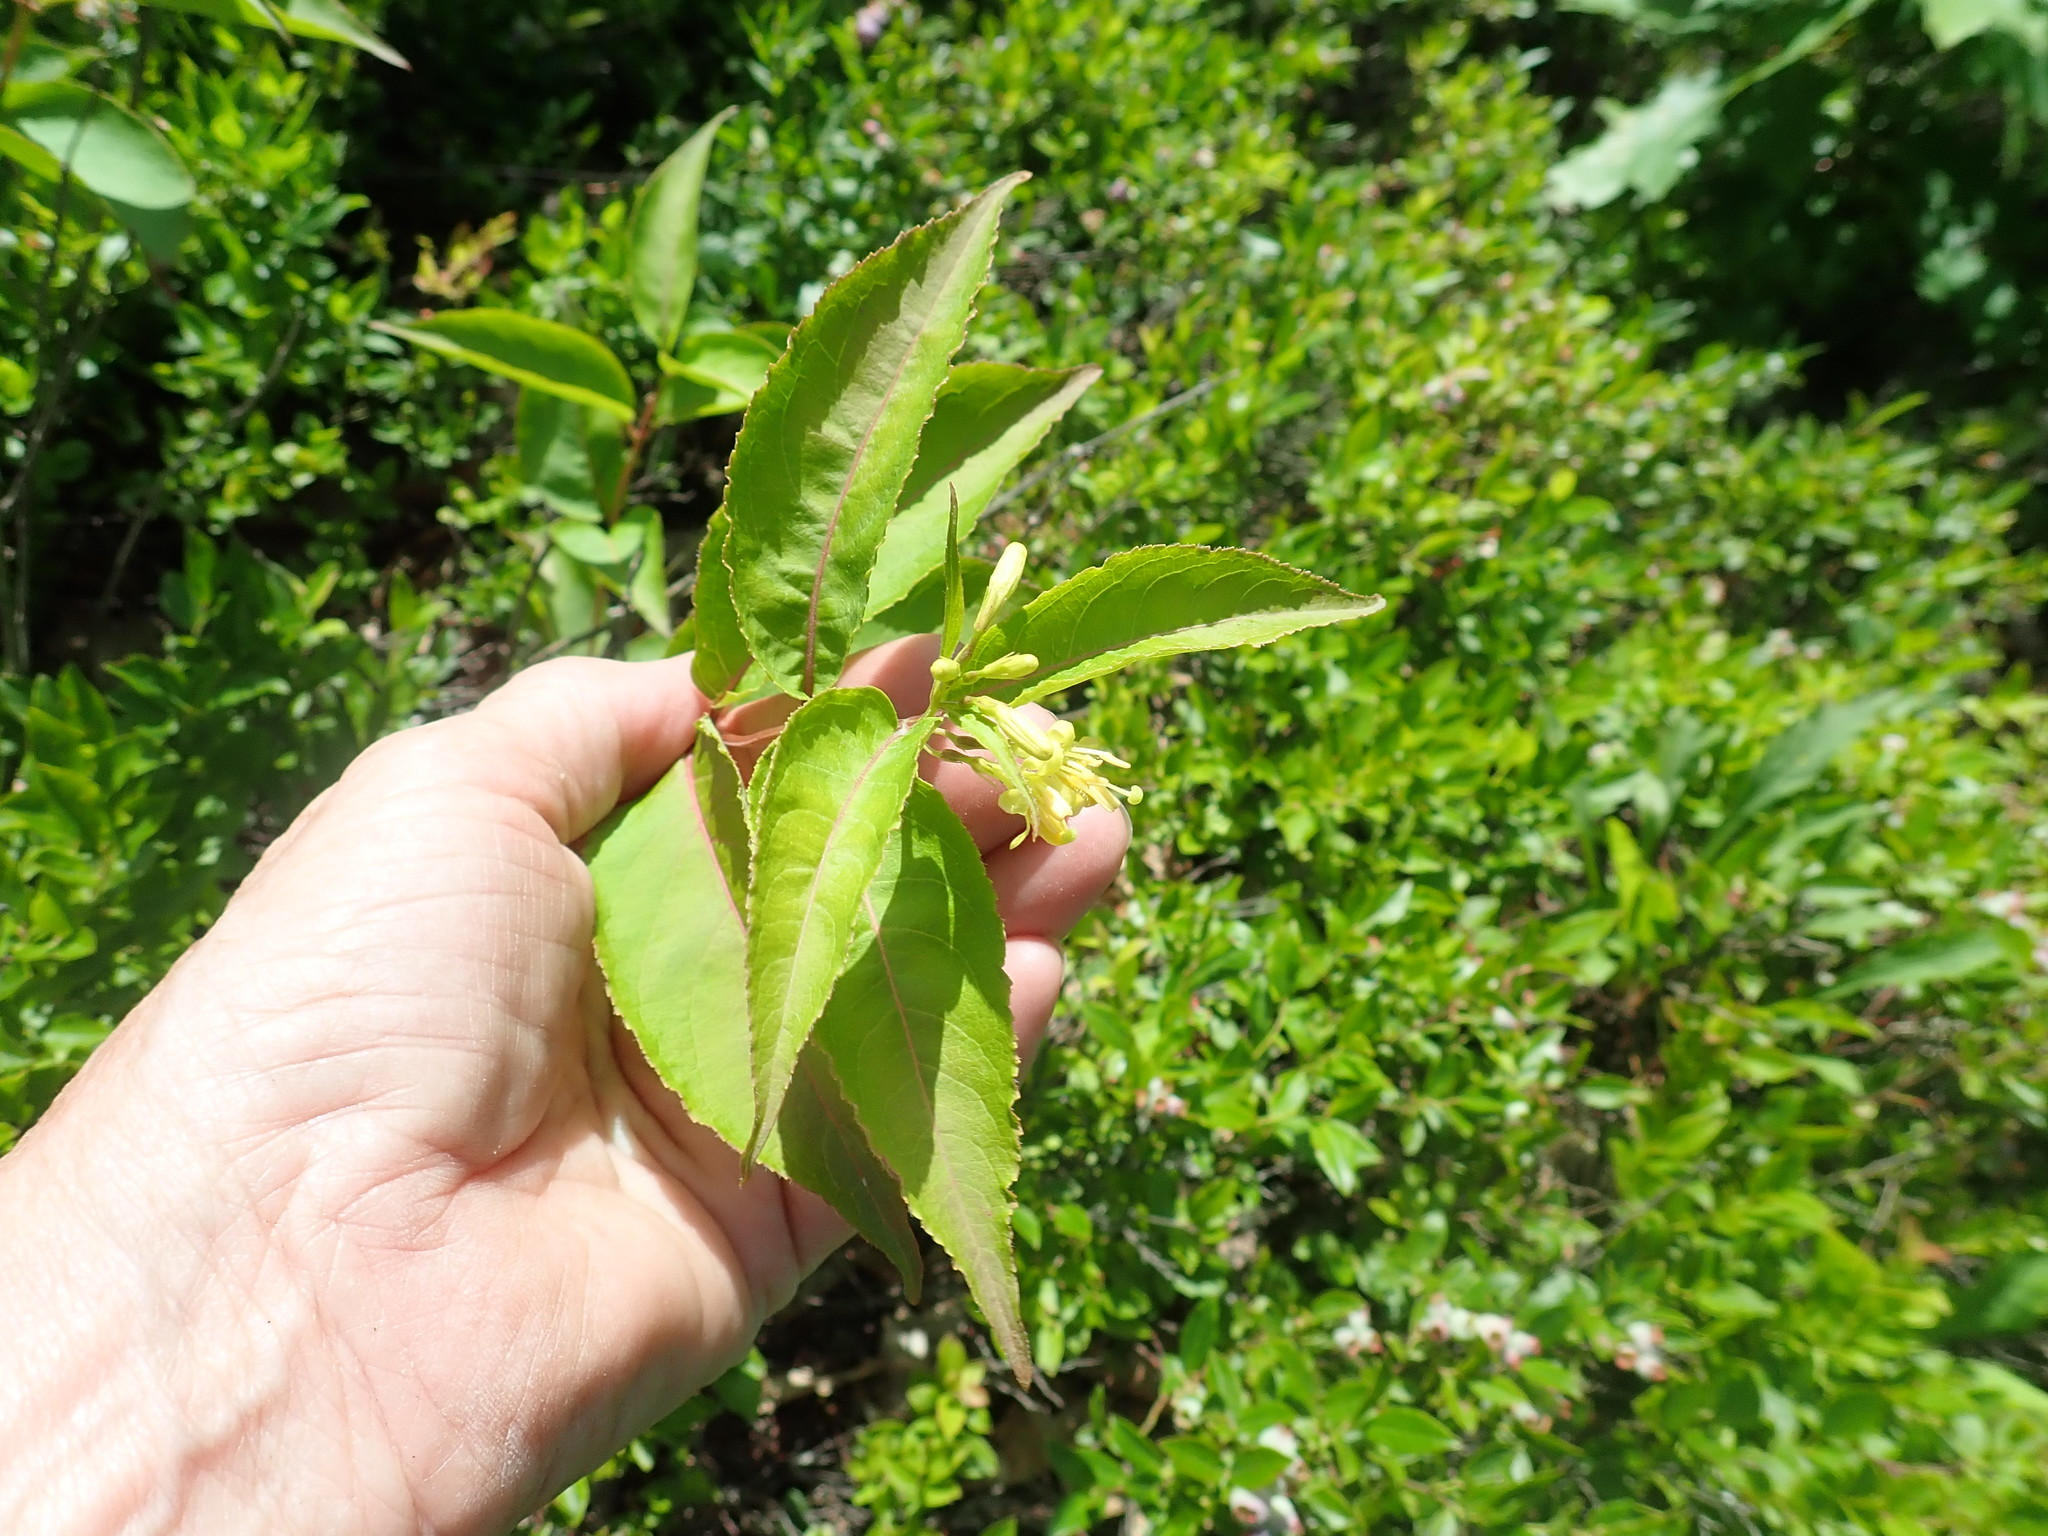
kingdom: Plantae
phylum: Tracheophyta
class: Magnoliopsida
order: Dipsacales
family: Caprifoliaceae
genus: Diervilla
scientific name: Diervilla lonicera
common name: Bush-honeysuckle
